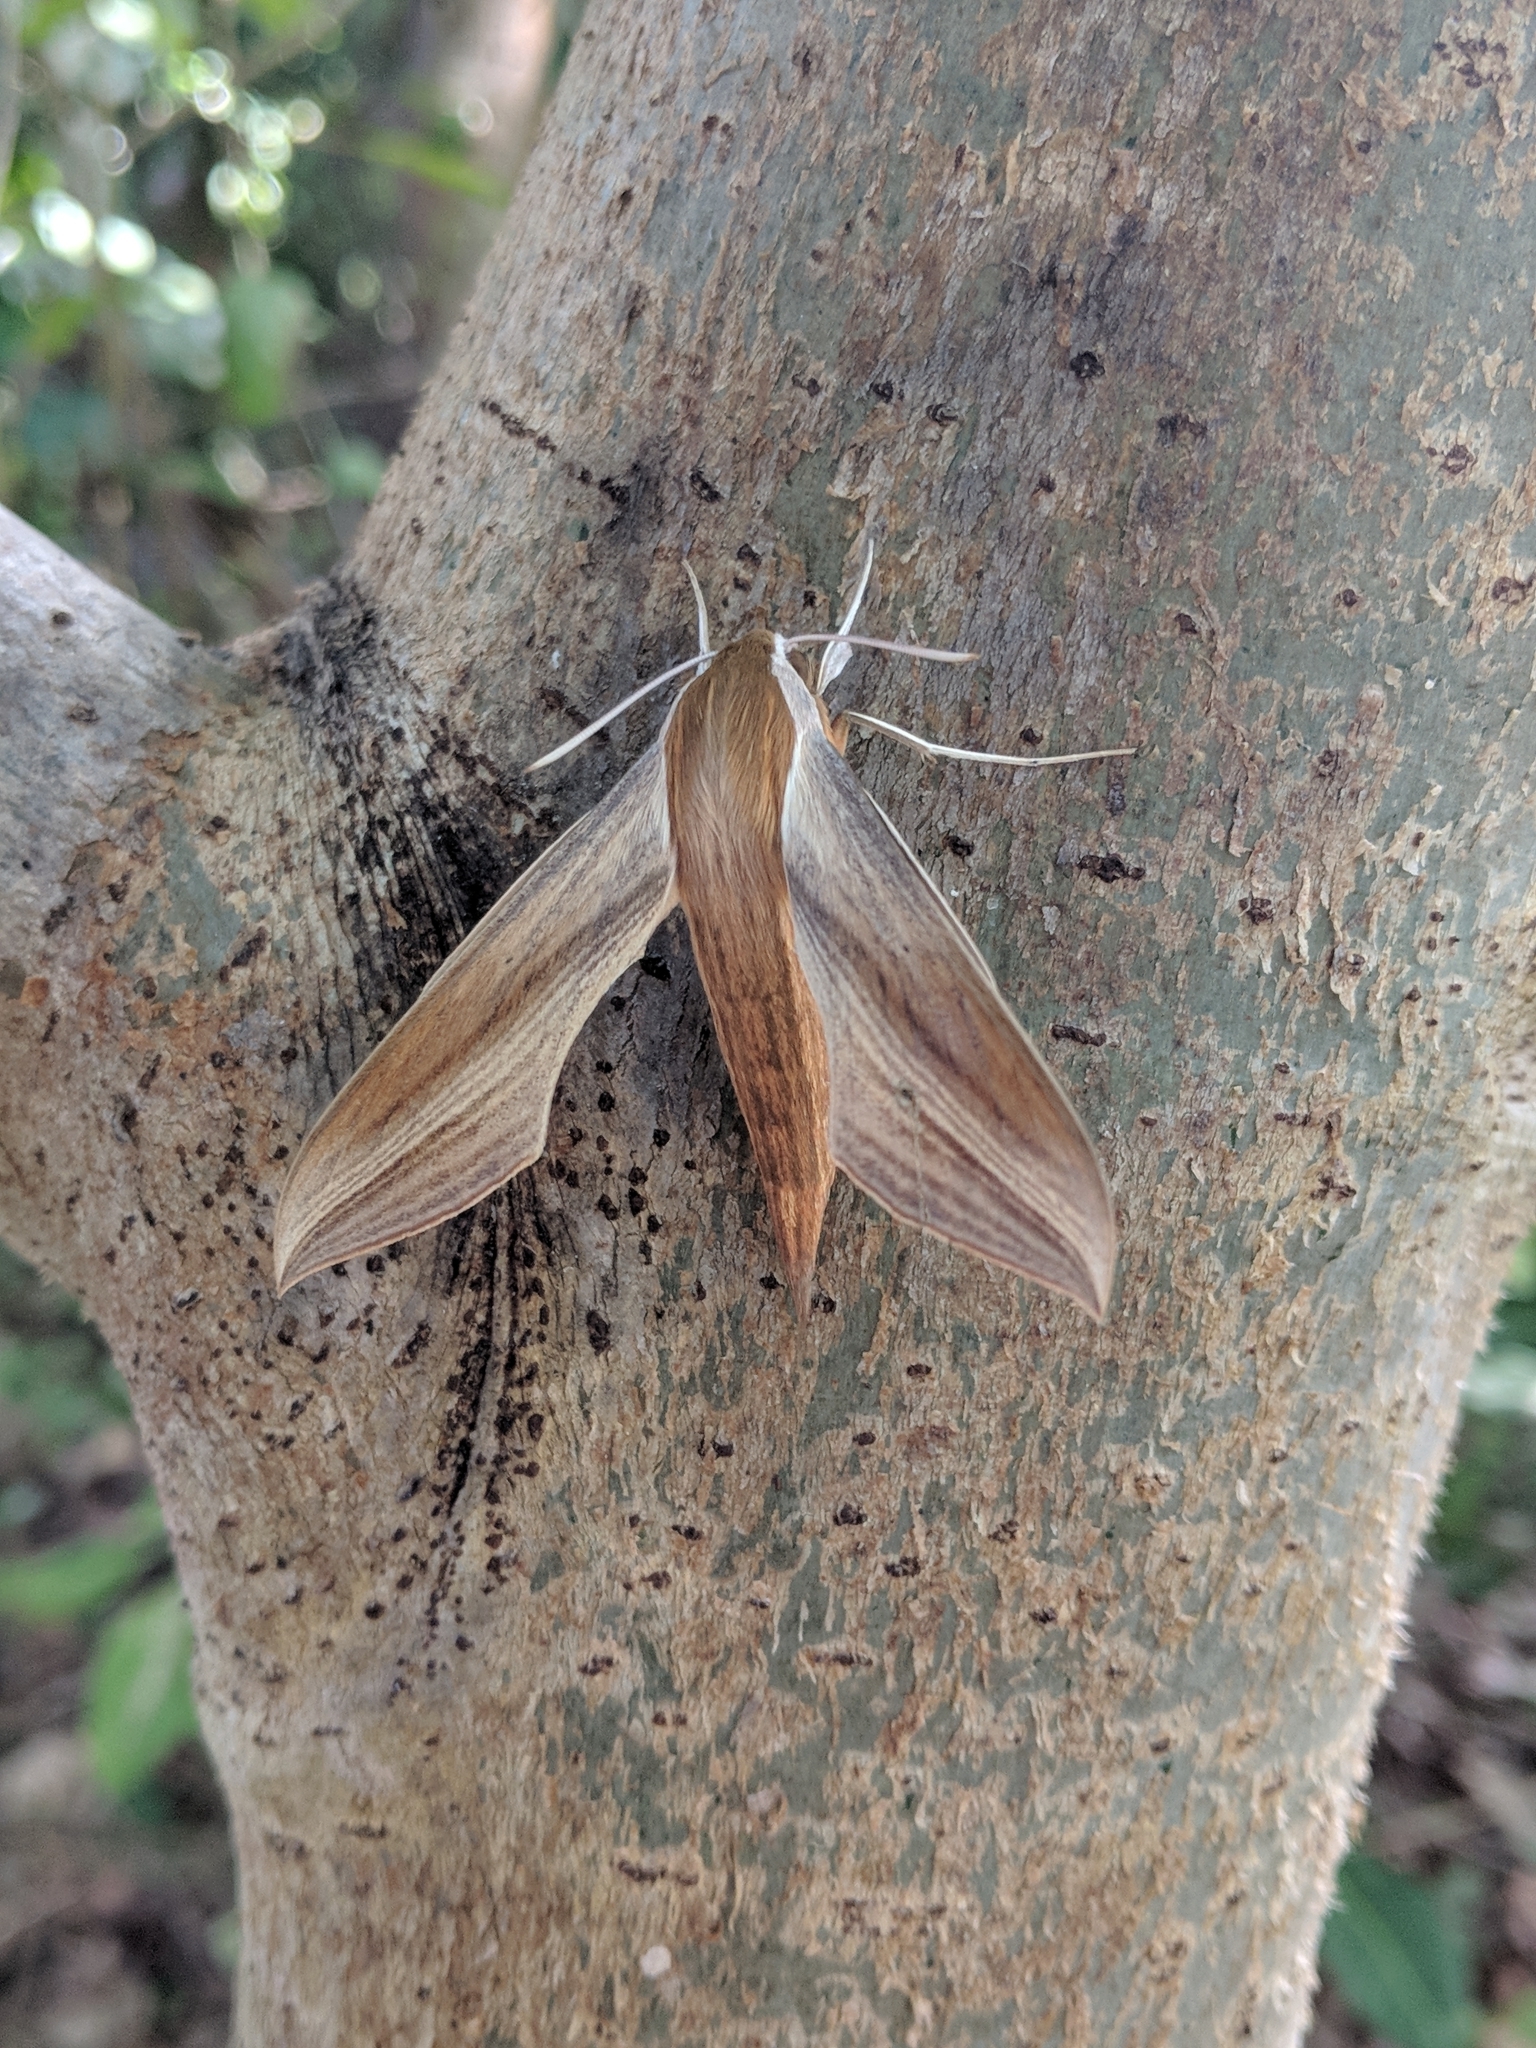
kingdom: Animalia
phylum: Arthropoda
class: Insecta
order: Lepidoptera
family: Sphingidae
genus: Xylophanes
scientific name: Xylophanes tersa
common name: Tersa sphinx
